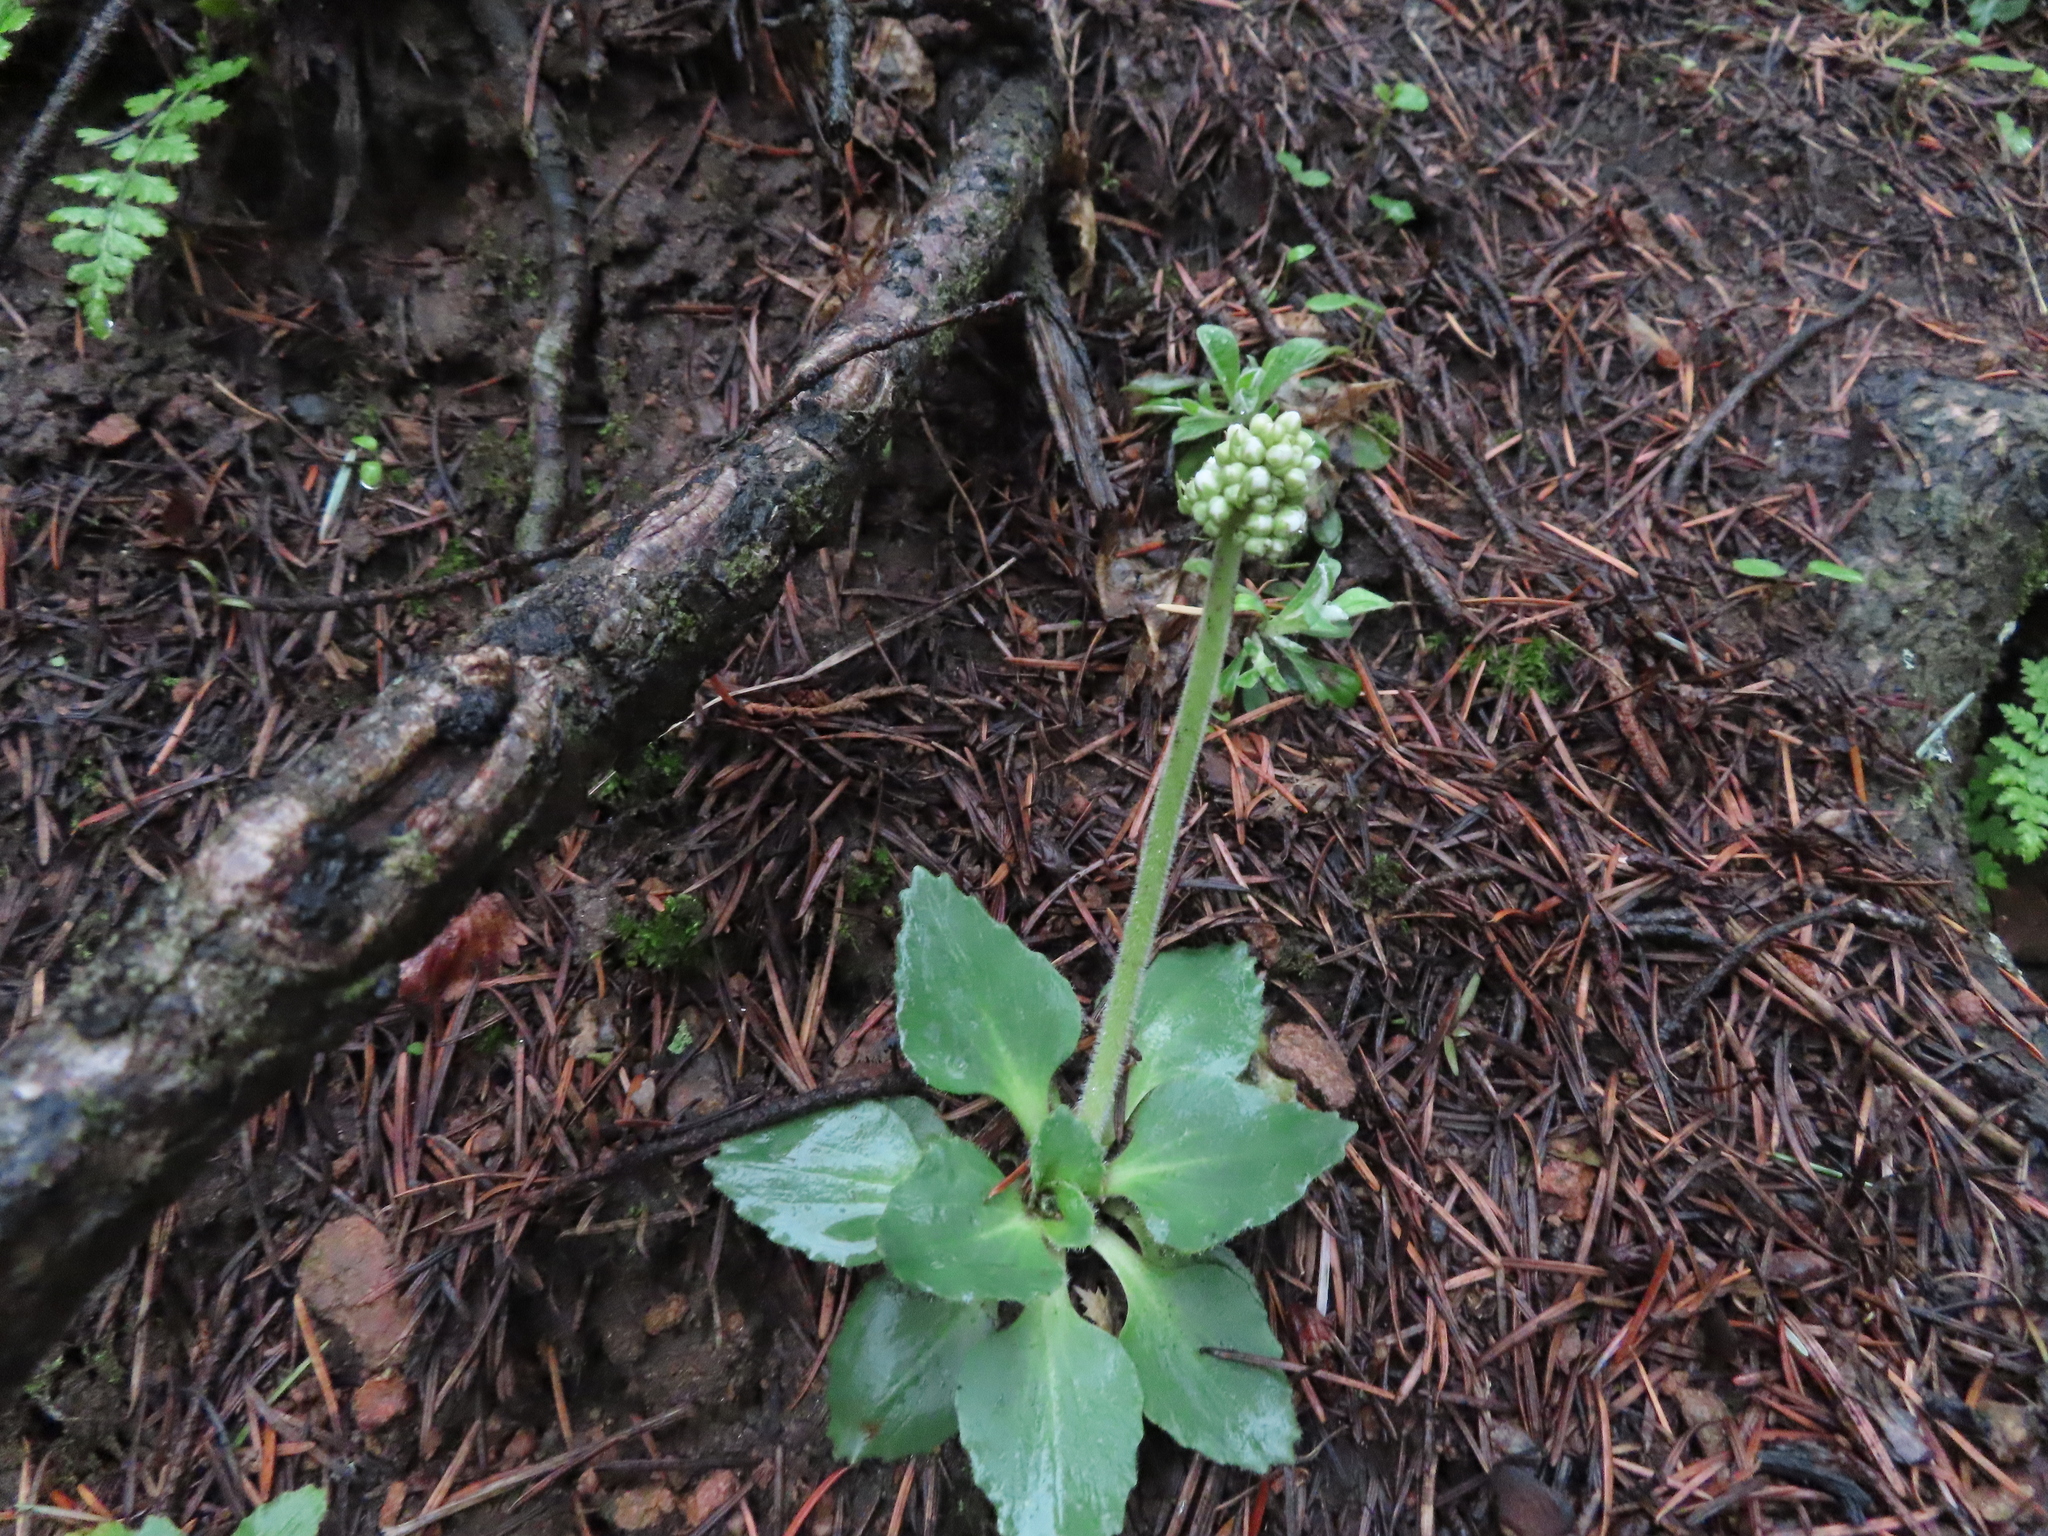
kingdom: Plantae
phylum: Tracheophyta
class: Magnoliopsida
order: Saxifragales
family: Saxifragaceae
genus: Micranthes
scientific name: Micranthes rhomboidea
